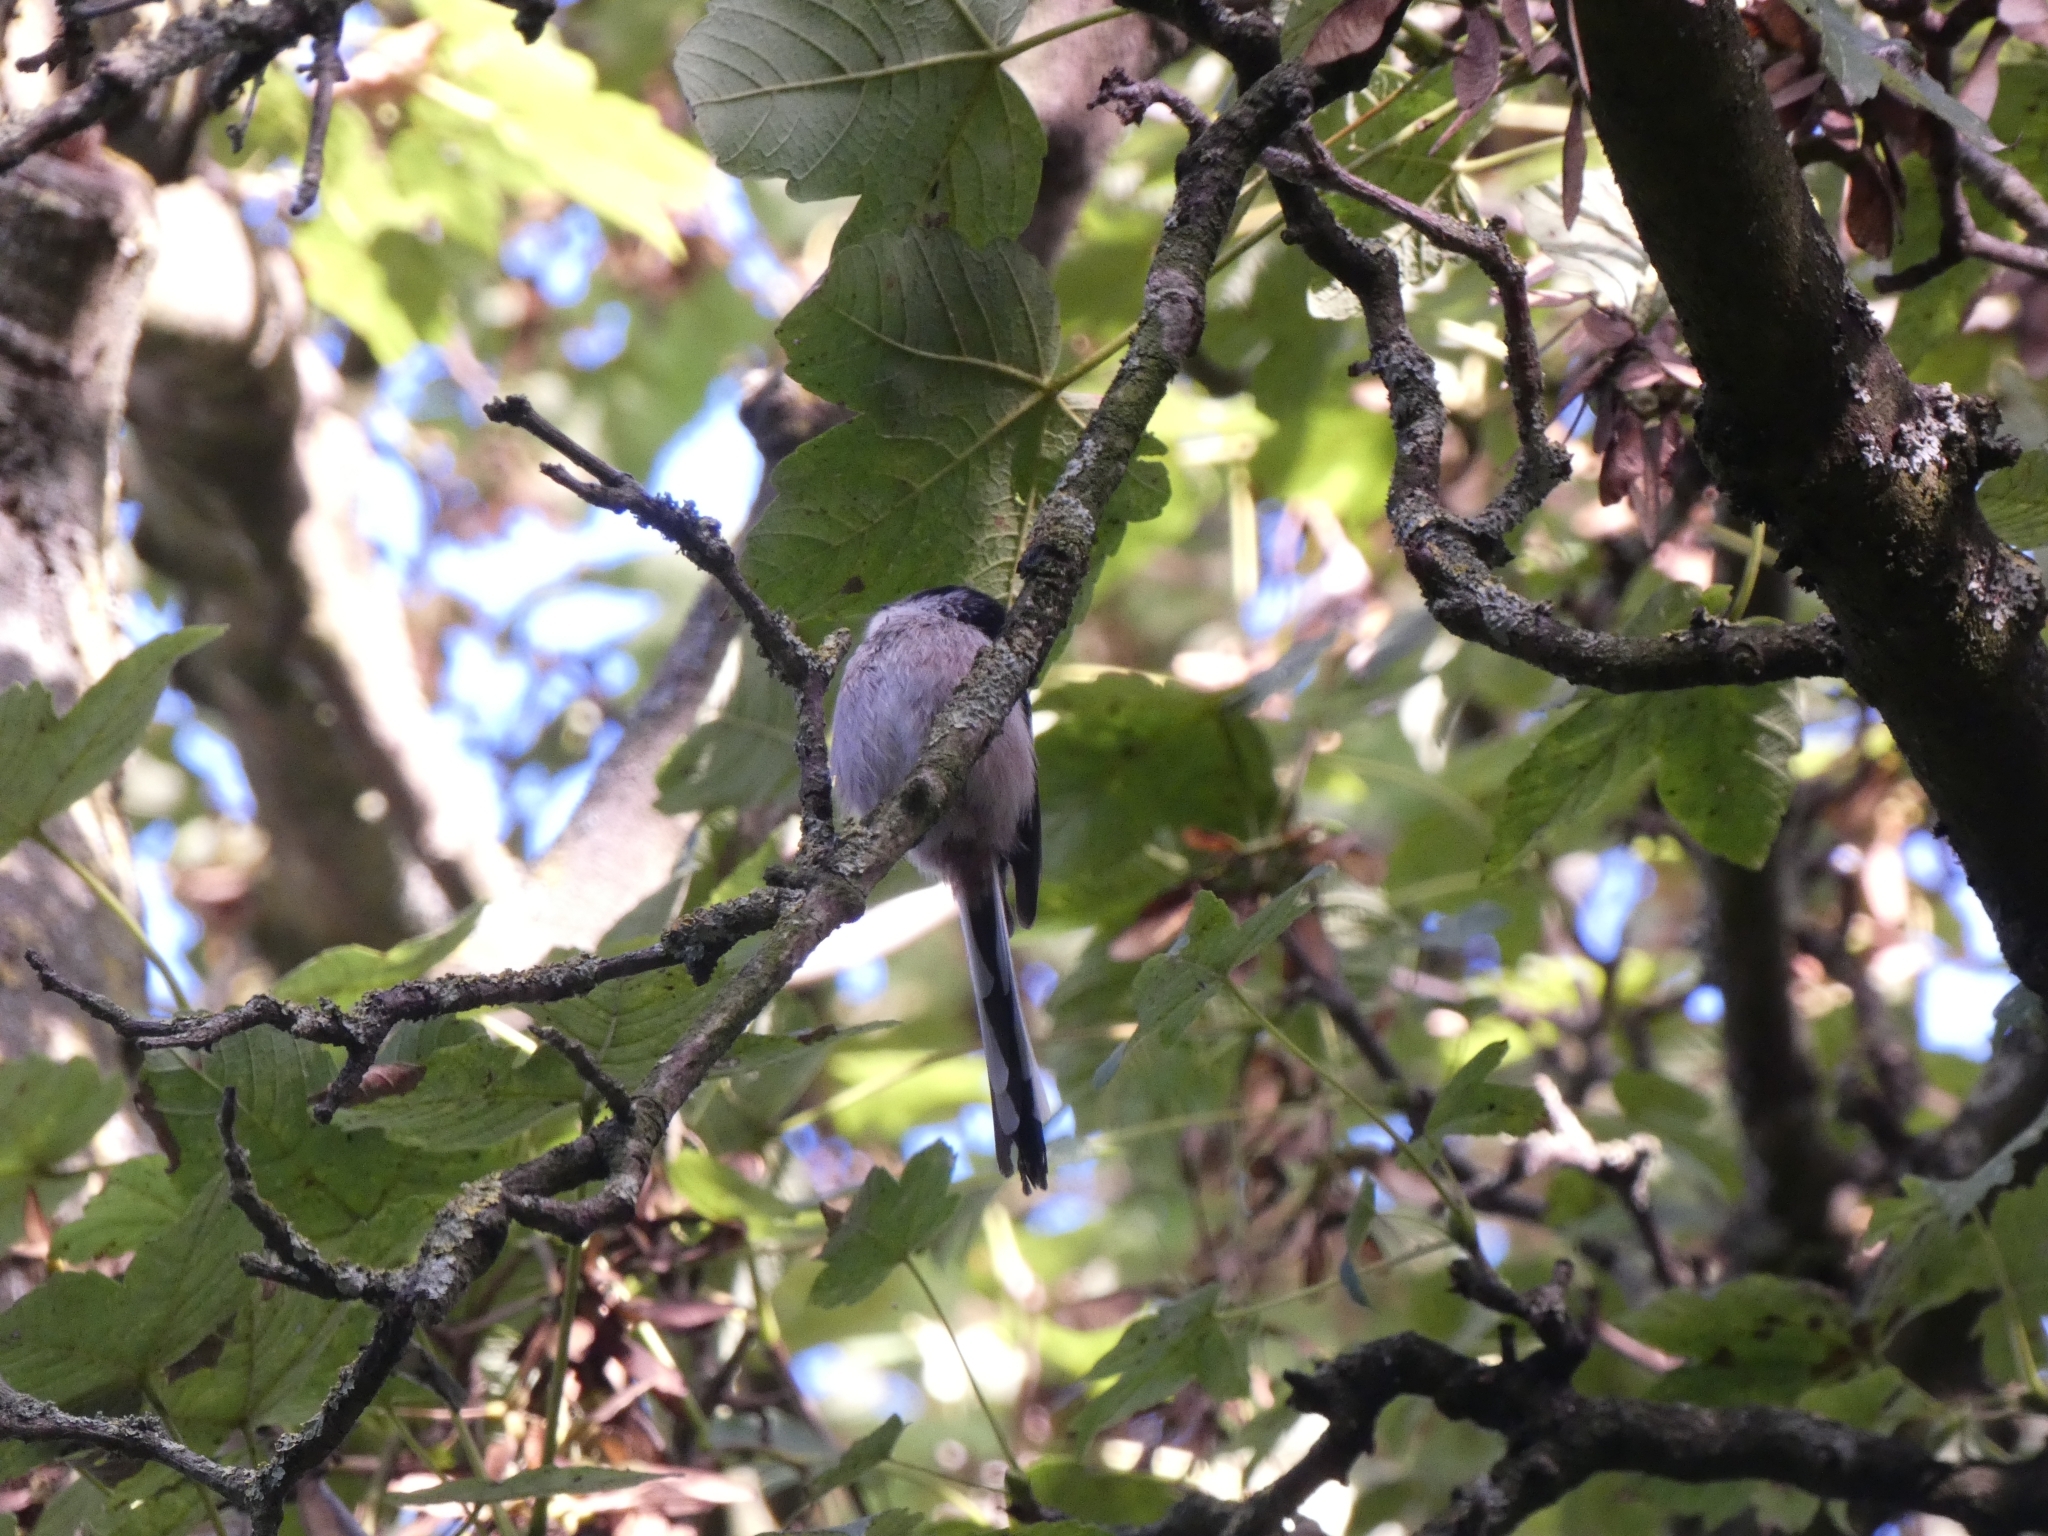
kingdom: Animalia
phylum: Chordata
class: Aves
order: Passeriformes
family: Aegithalidae
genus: Aegithalos
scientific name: Aegithalos caudatus
